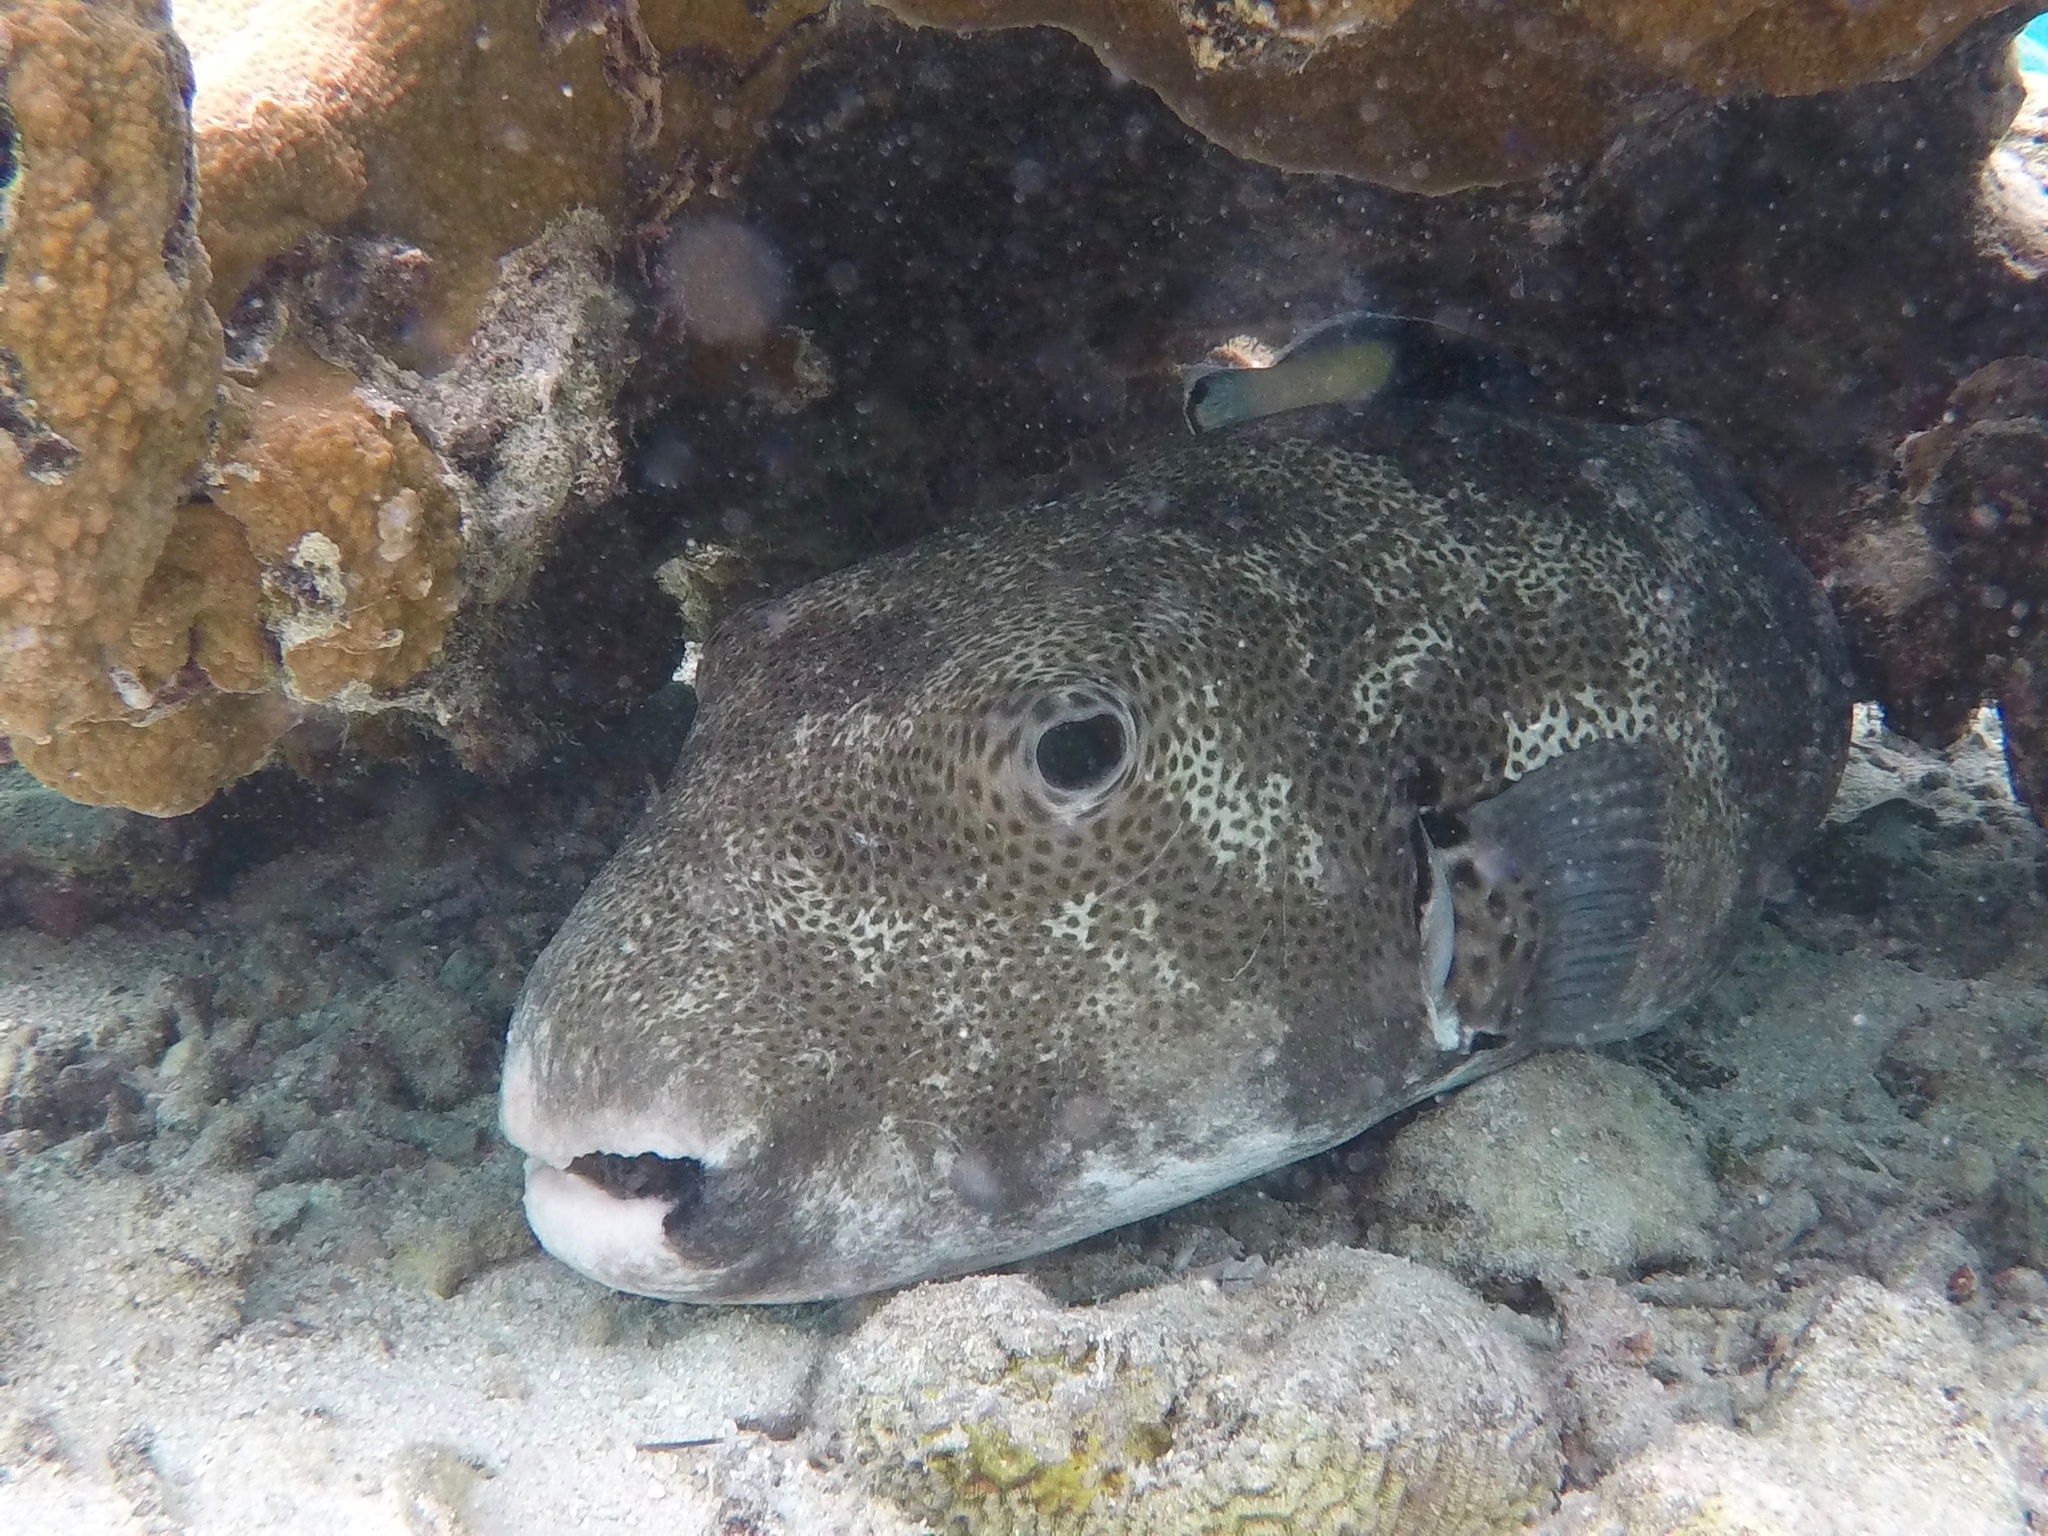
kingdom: Animalia
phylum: Chordata
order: Tetraodontiformes
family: Tetraodontidae
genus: Arothron
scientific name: Arothron stellatus
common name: Star blaasop
